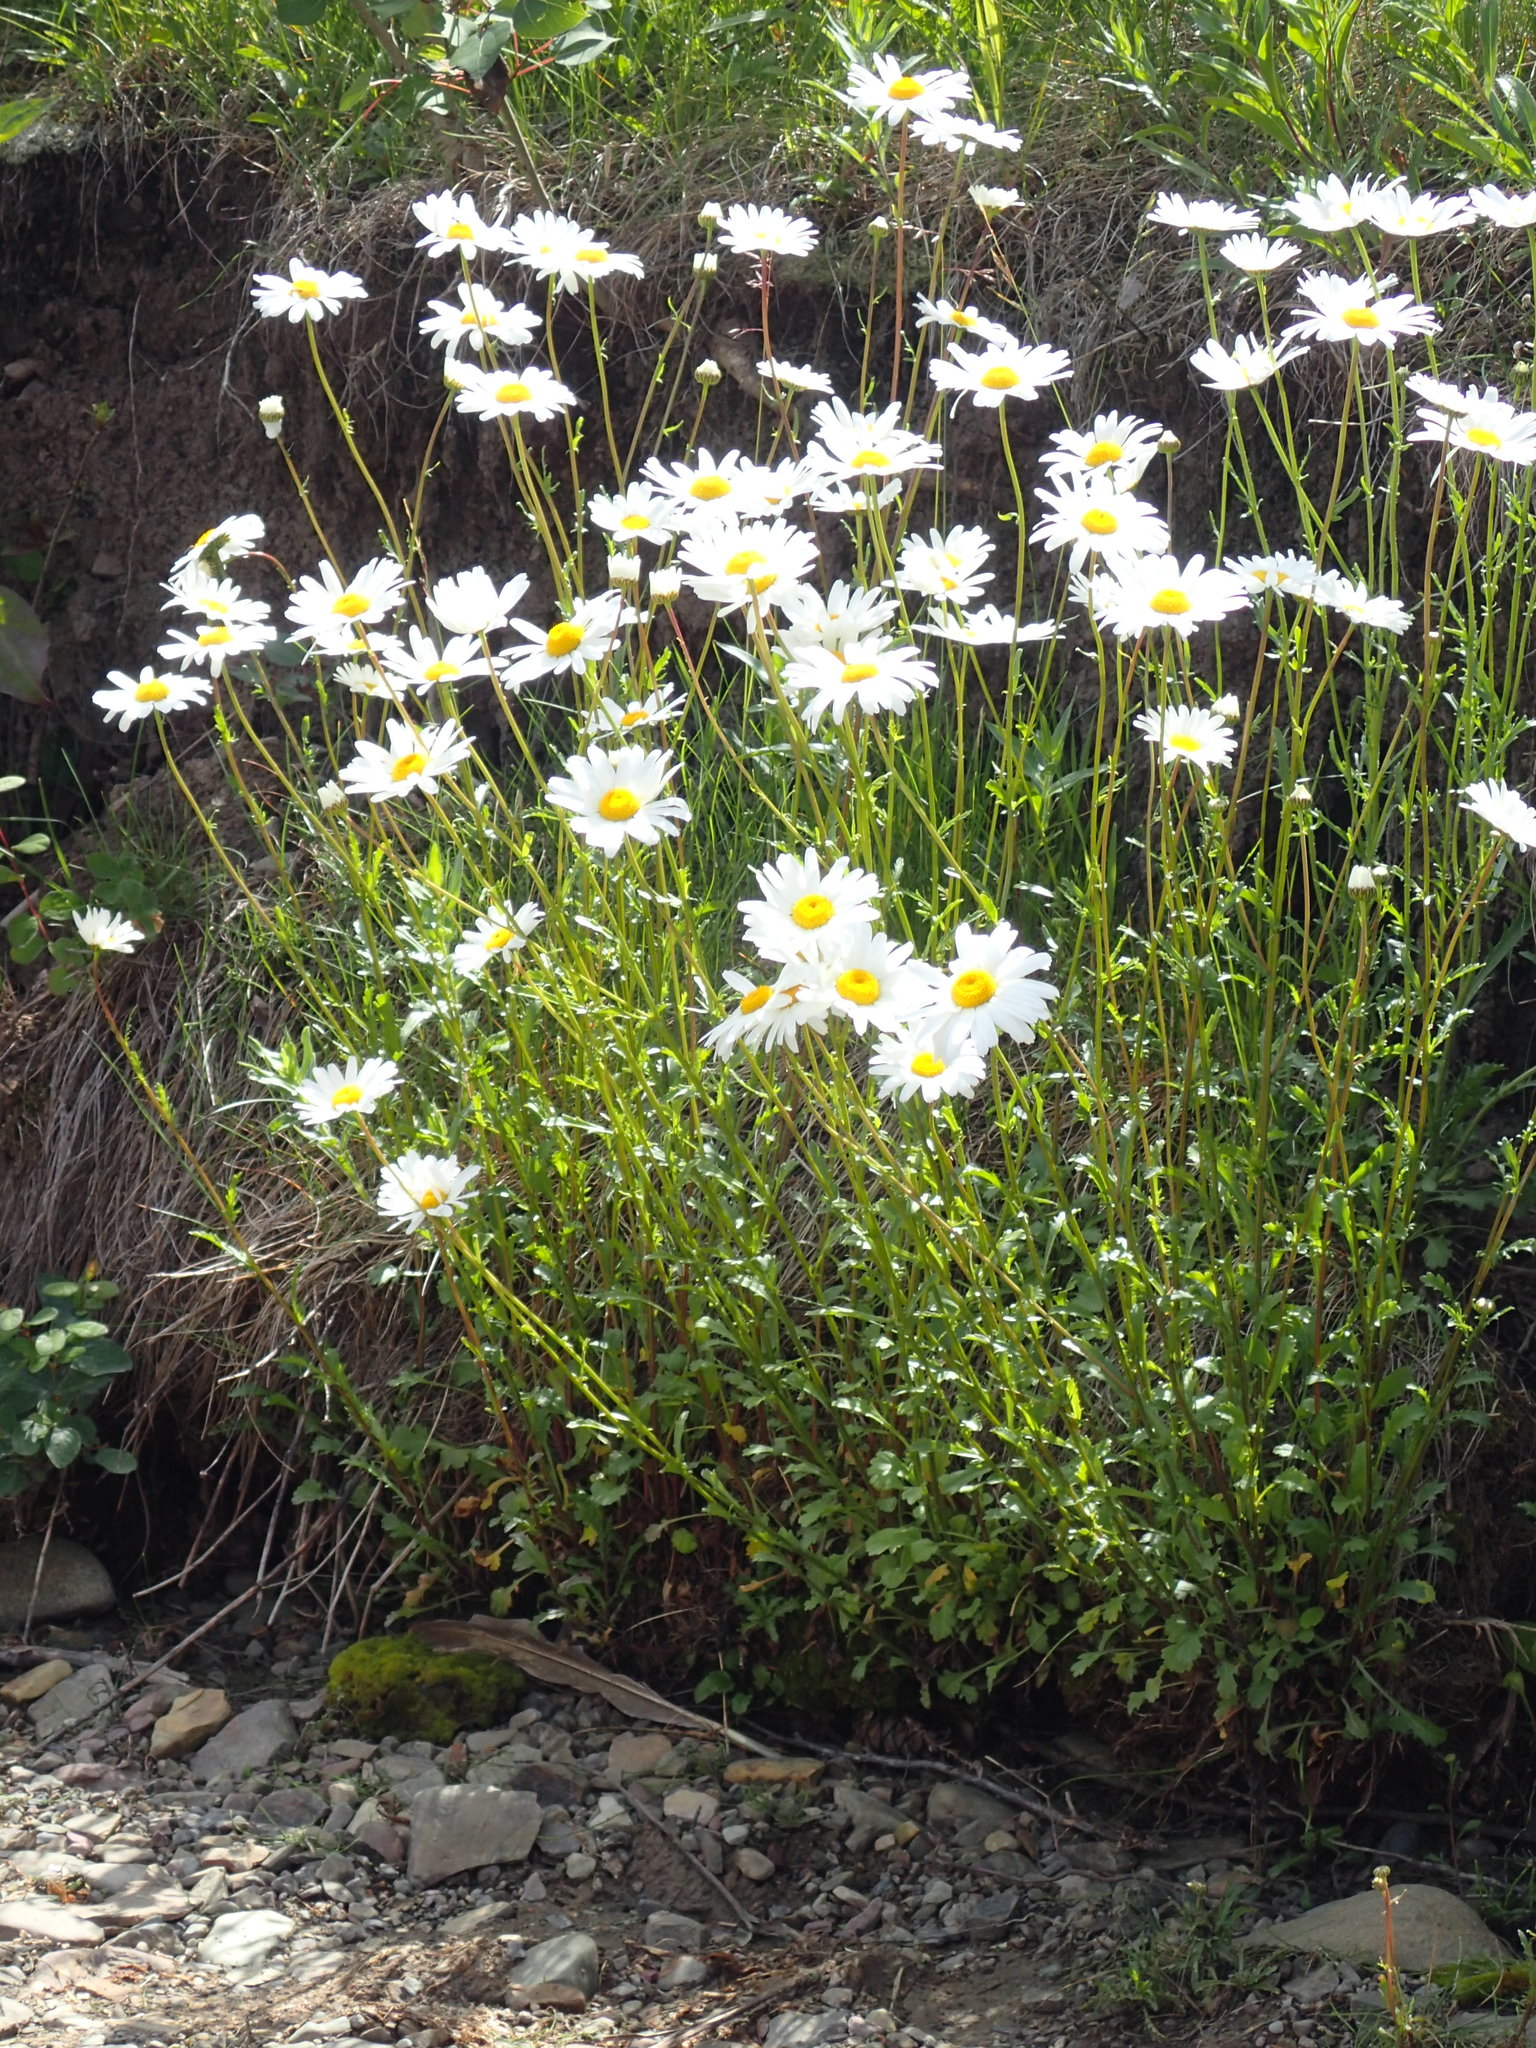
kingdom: Plantae
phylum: Tracheophyta
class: Magnoliopsida
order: Asterales
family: Asteraceae
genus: Leucanthemum
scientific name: Leucanthemum vulgare
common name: Oxeye daisy
